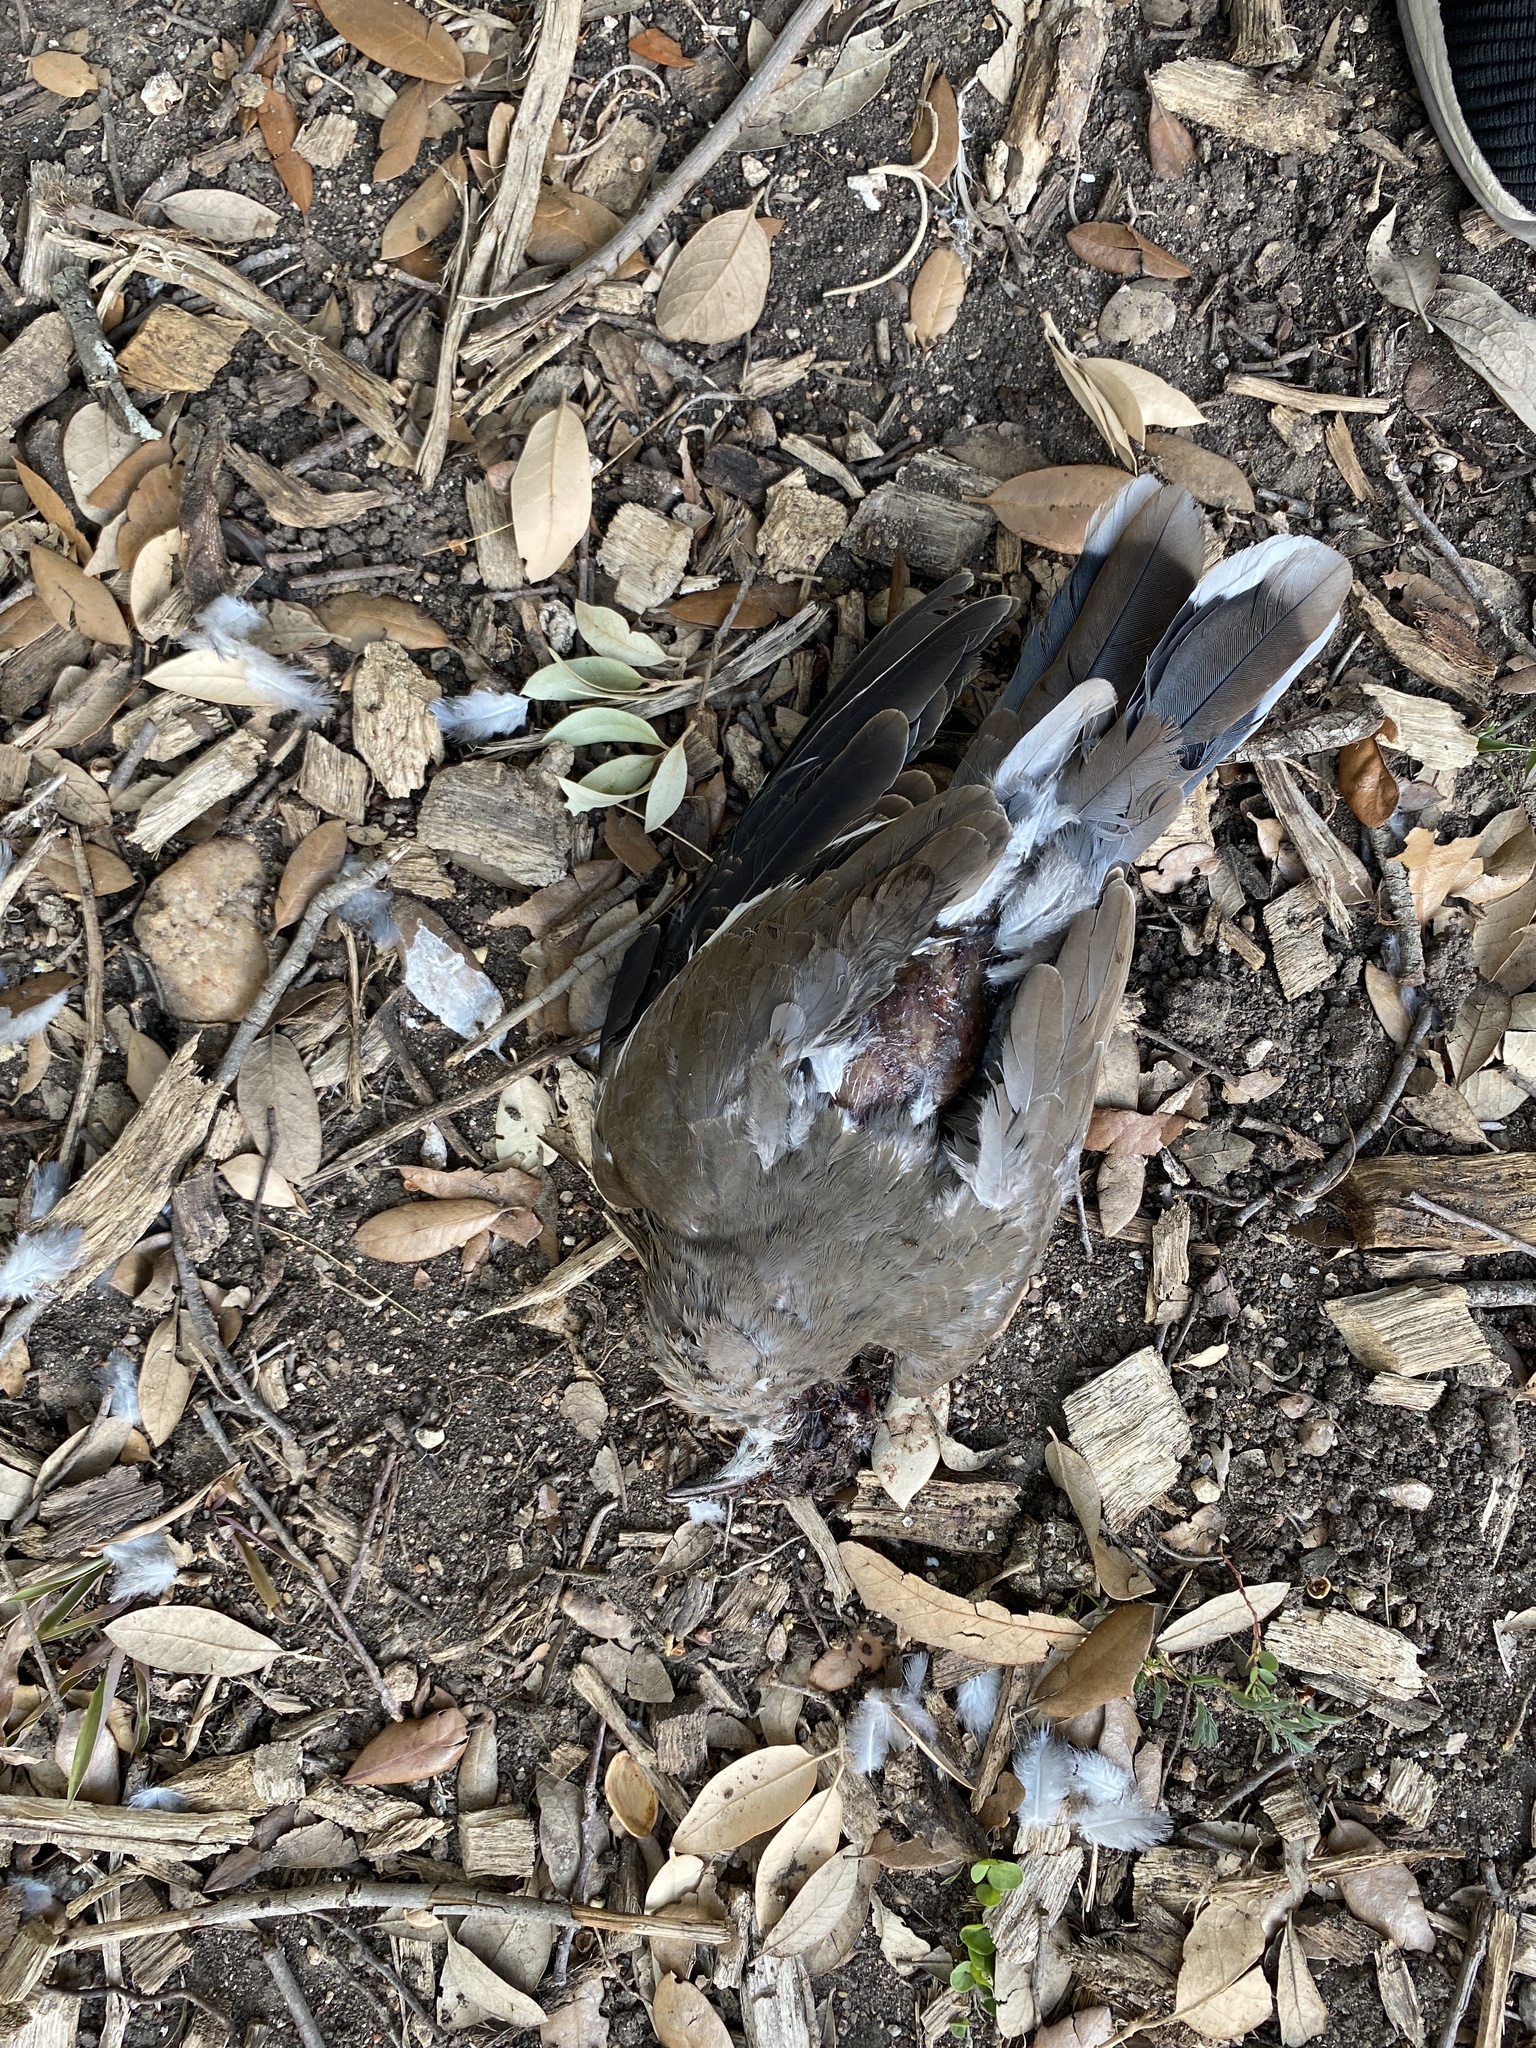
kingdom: Animalia
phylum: Chordata
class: Aves
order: Columbiformes
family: Columbidae
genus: Zenaida
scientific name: Zenaida asiatica
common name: White-winged dove
